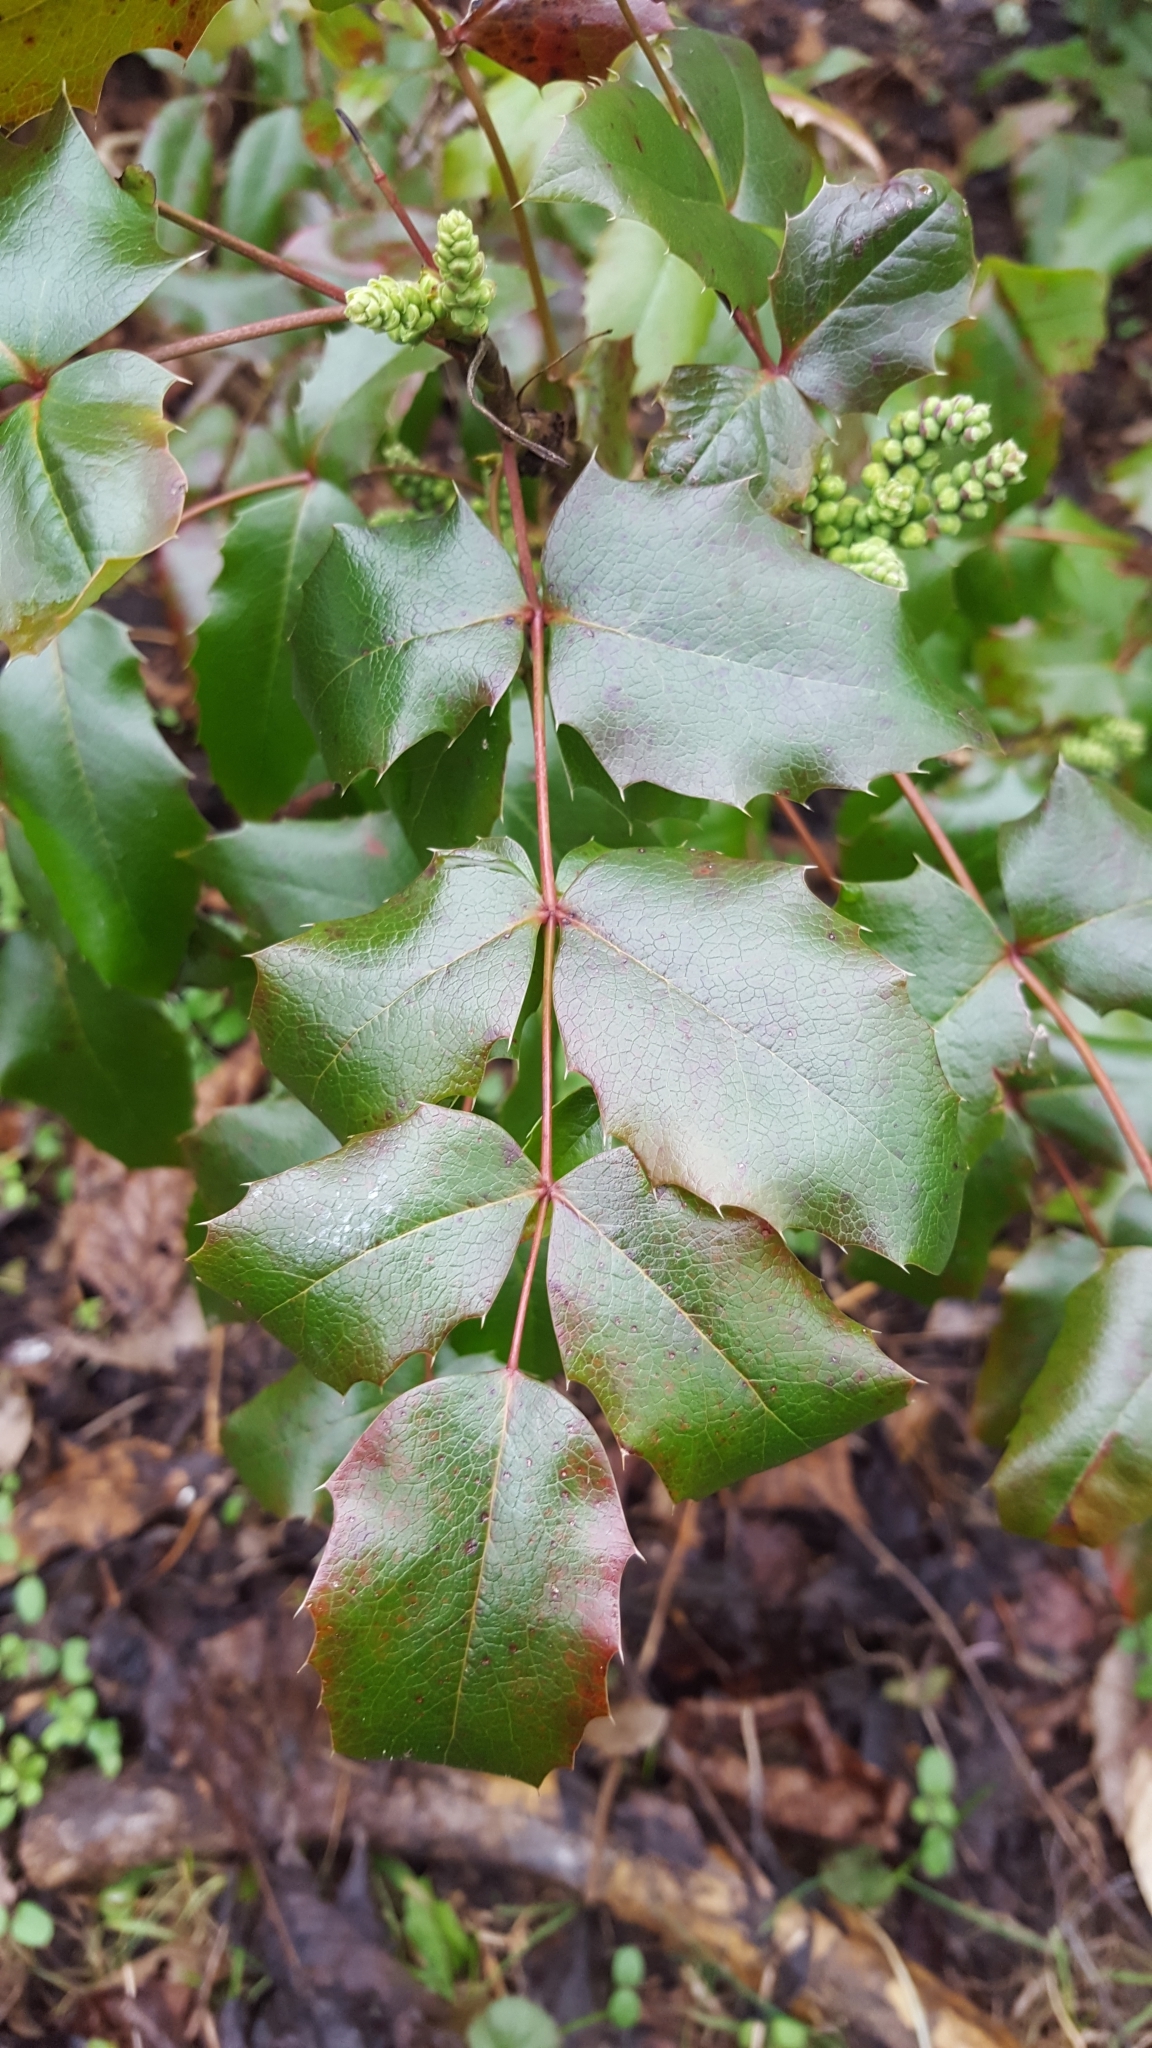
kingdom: Plantae
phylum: Tracheophyta
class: Magnoliopsida
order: Ranunculales
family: Berberidaceae
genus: Mahonia
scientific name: Mahonia aquifolium
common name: Oregon-grape
